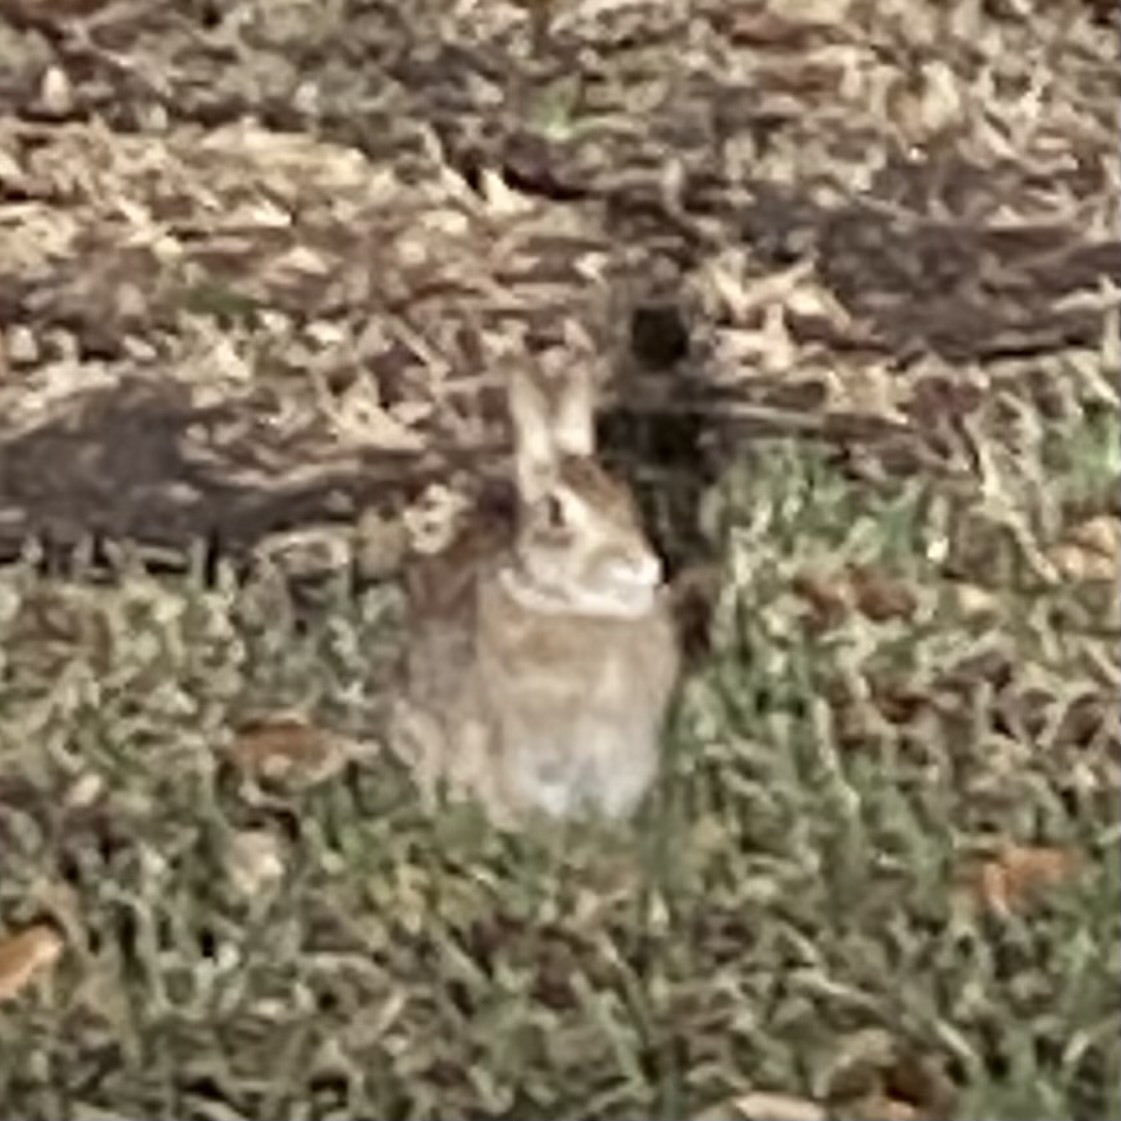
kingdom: Animalia
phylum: Chordata
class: Mammalia
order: Lagomorpha
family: Leporidae
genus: Sylvilagus
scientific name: Sylvilagus floridanus
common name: Eastern cottontail
